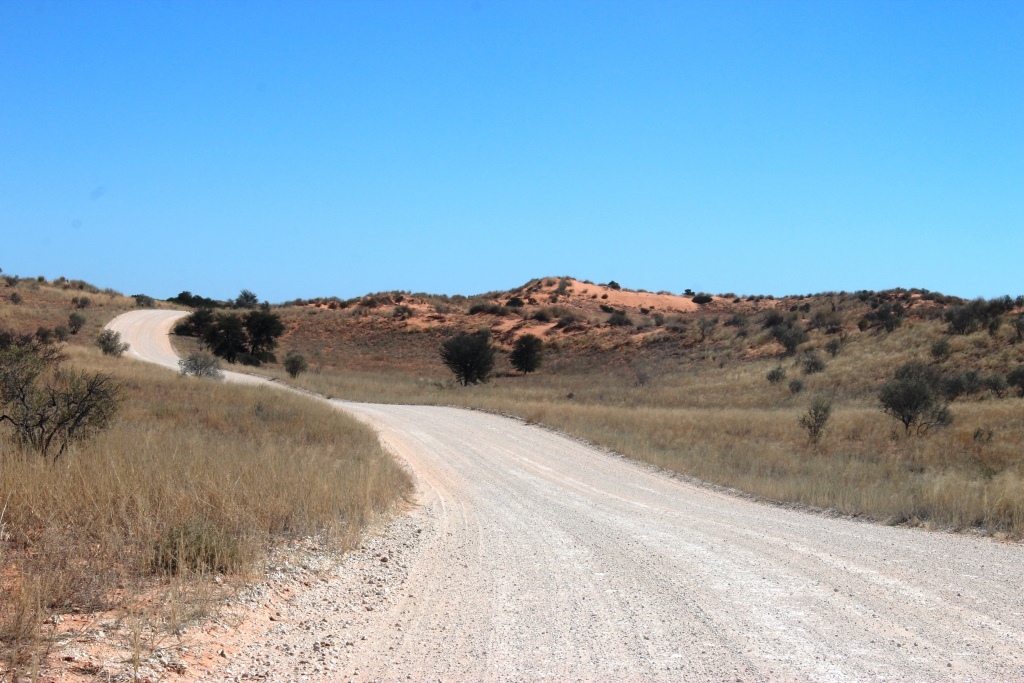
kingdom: Plantae
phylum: Tracheophyta
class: Magnoliopsida
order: Fabales
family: Fabaceae
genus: Vachellia
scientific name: Vachellia erioloba
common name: Camel thorn
